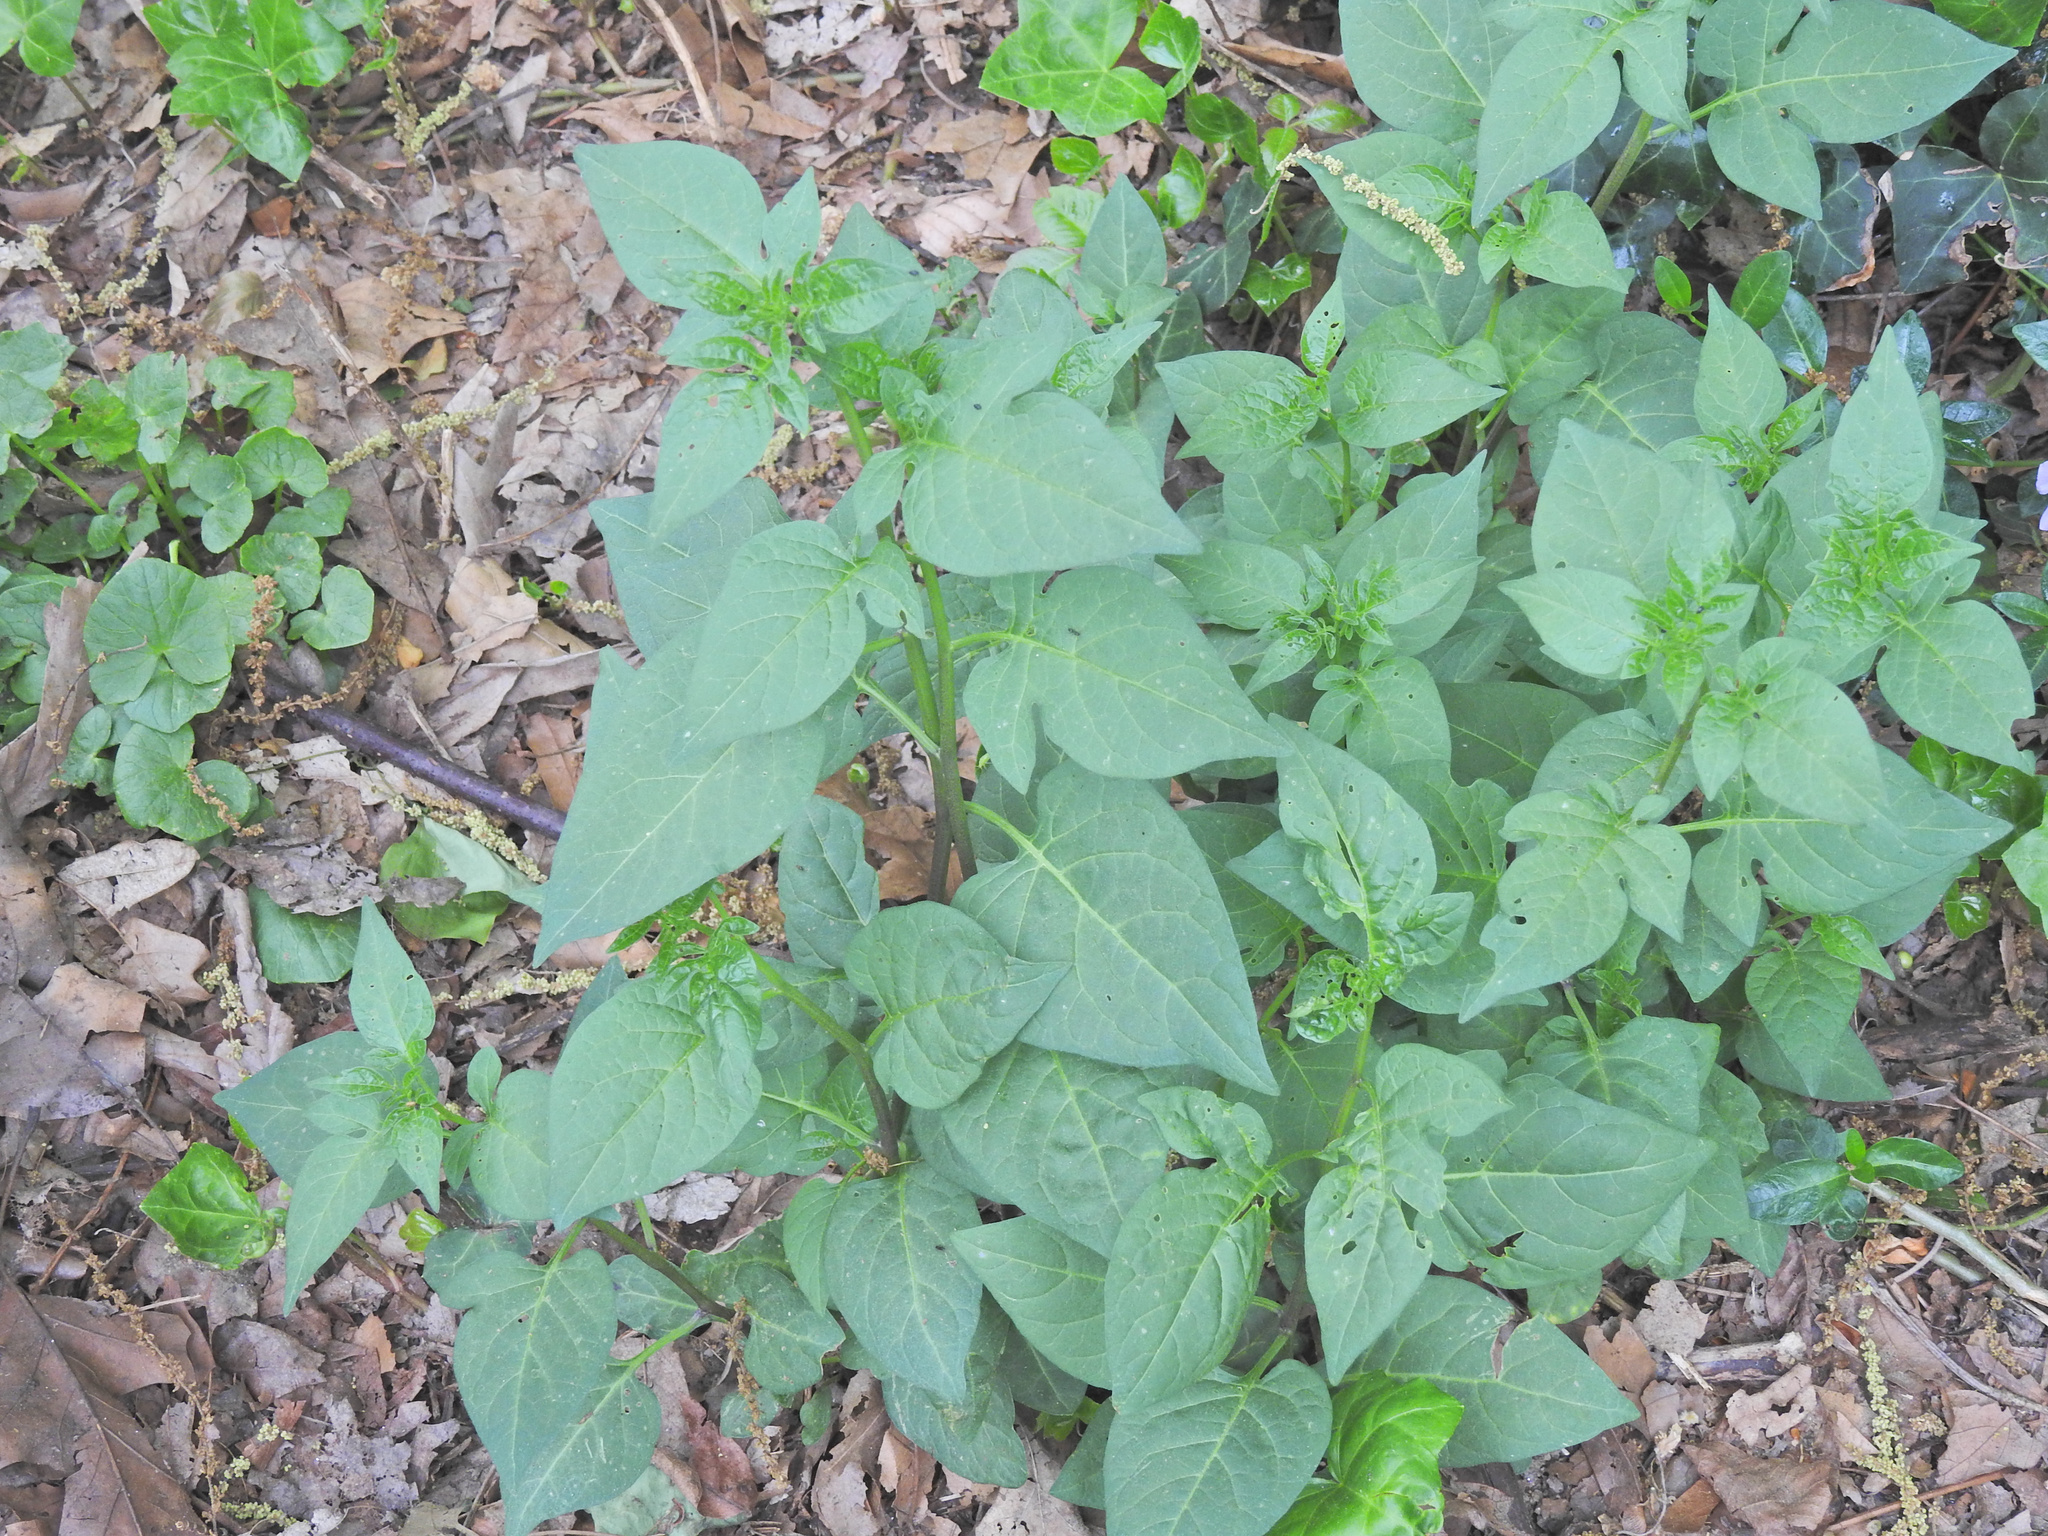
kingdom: Plantae
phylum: Tracheophyta
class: Magnoliopsida
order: Solanales
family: Solanaceae
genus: Solanum
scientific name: Solanum dulcamara
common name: Climbing nightshade
